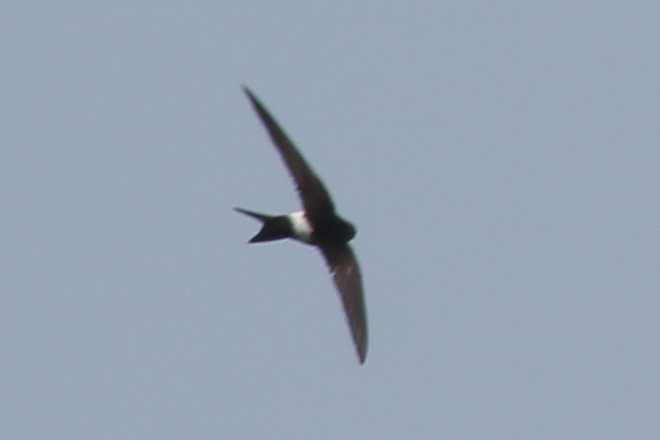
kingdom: Animalia
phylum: Chordata
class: Aves
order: Apodiformes
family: Apodidae
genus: Apus
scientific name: Apus pacificus
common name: Pacific swift
